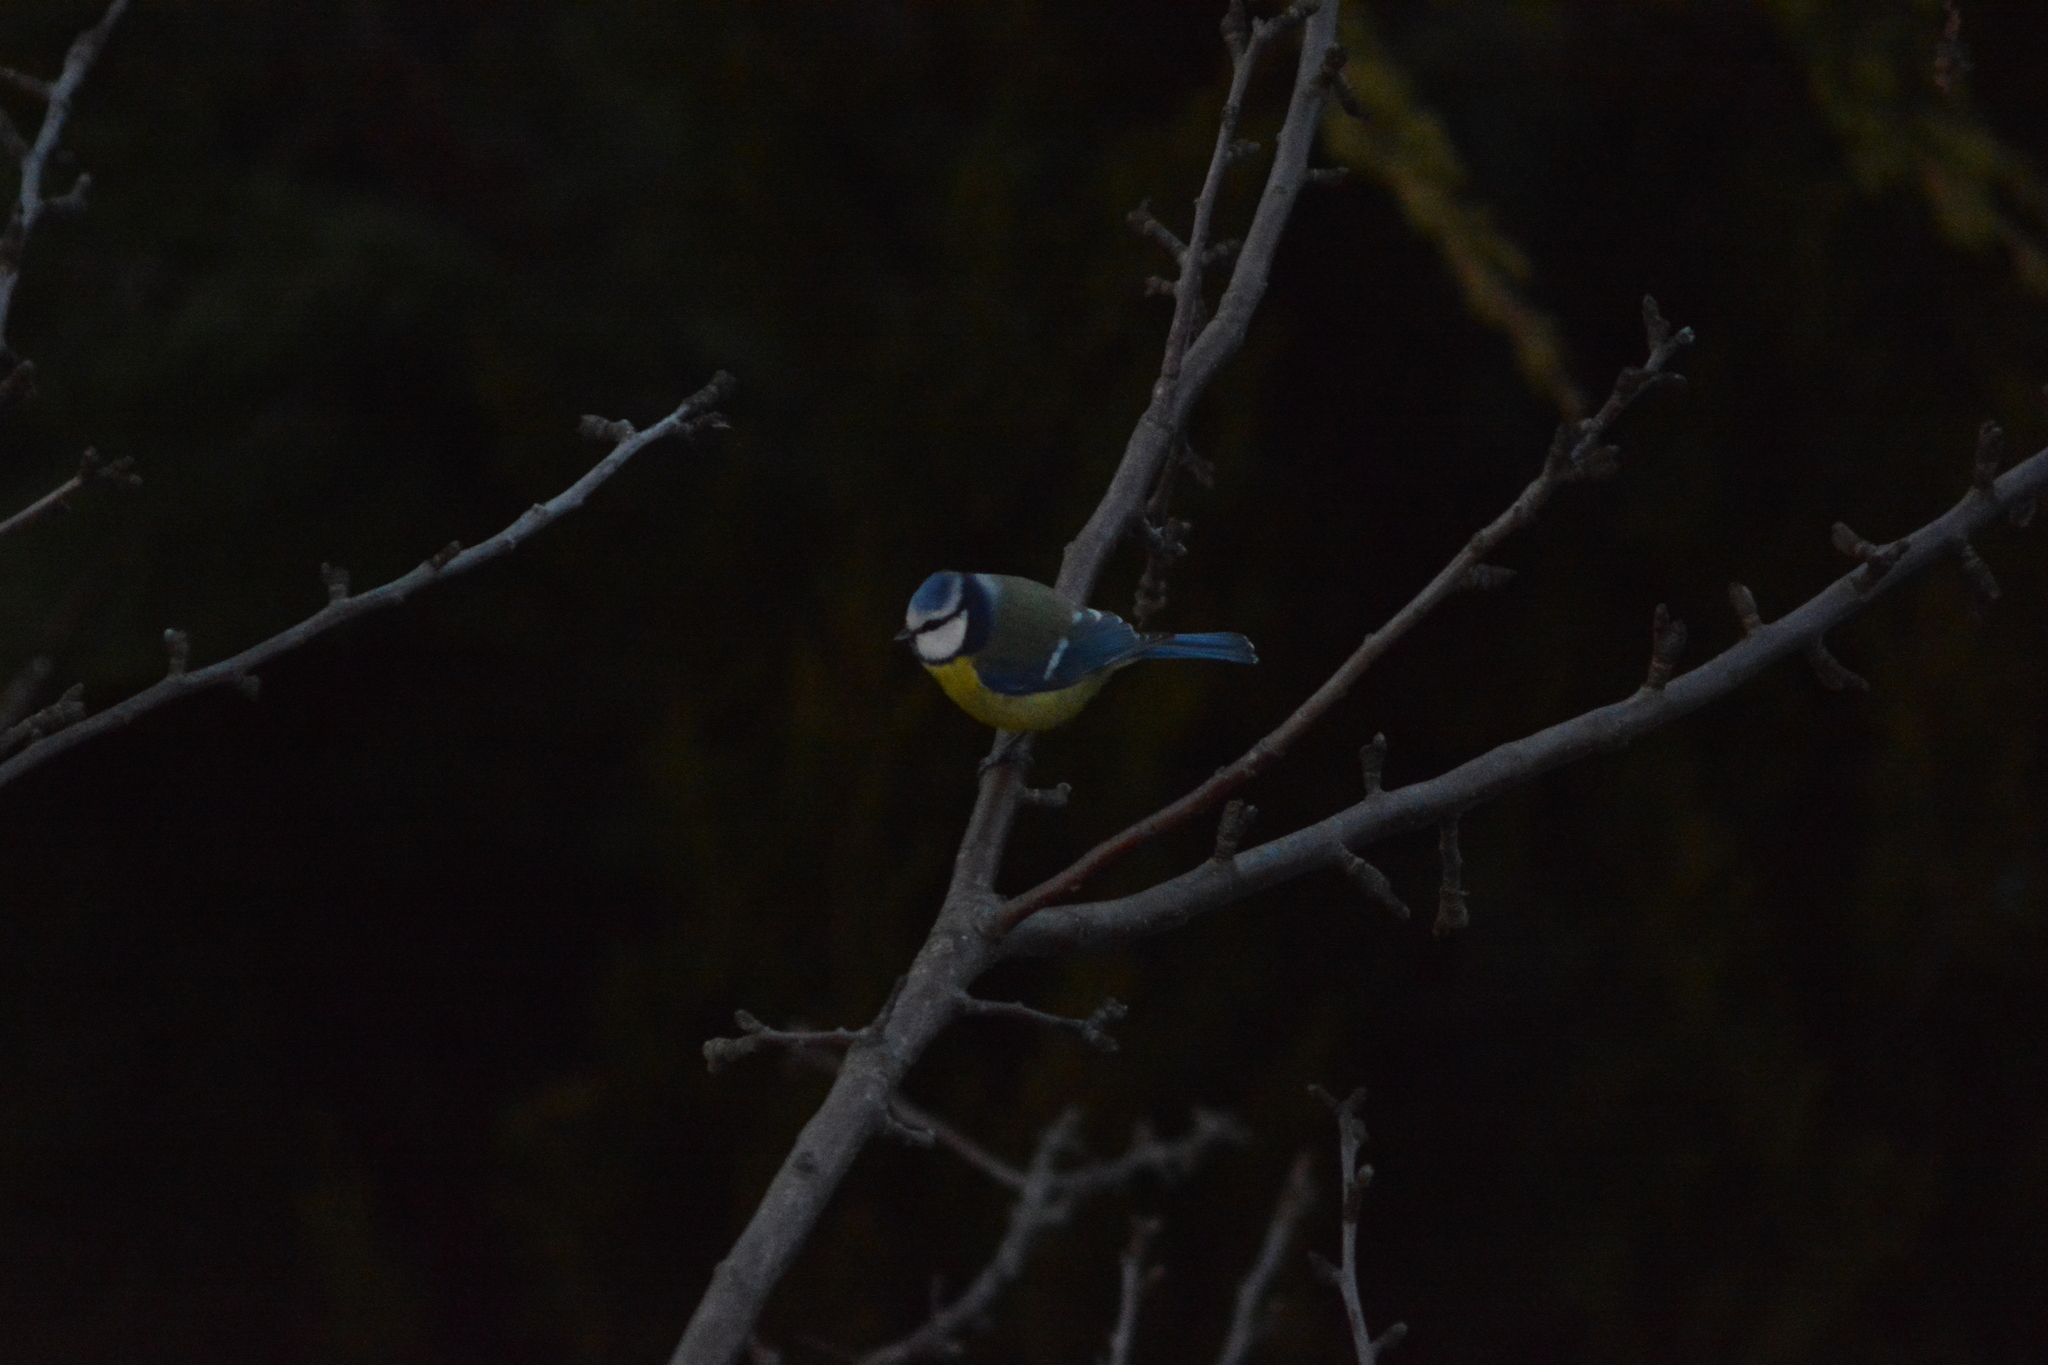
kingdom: Animalia
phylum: Chordata
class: Aves
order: Passeriformes
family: Paridae
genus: Cyanistes
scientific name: Cyanistes caeruleus
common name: Eurasian blue tit
